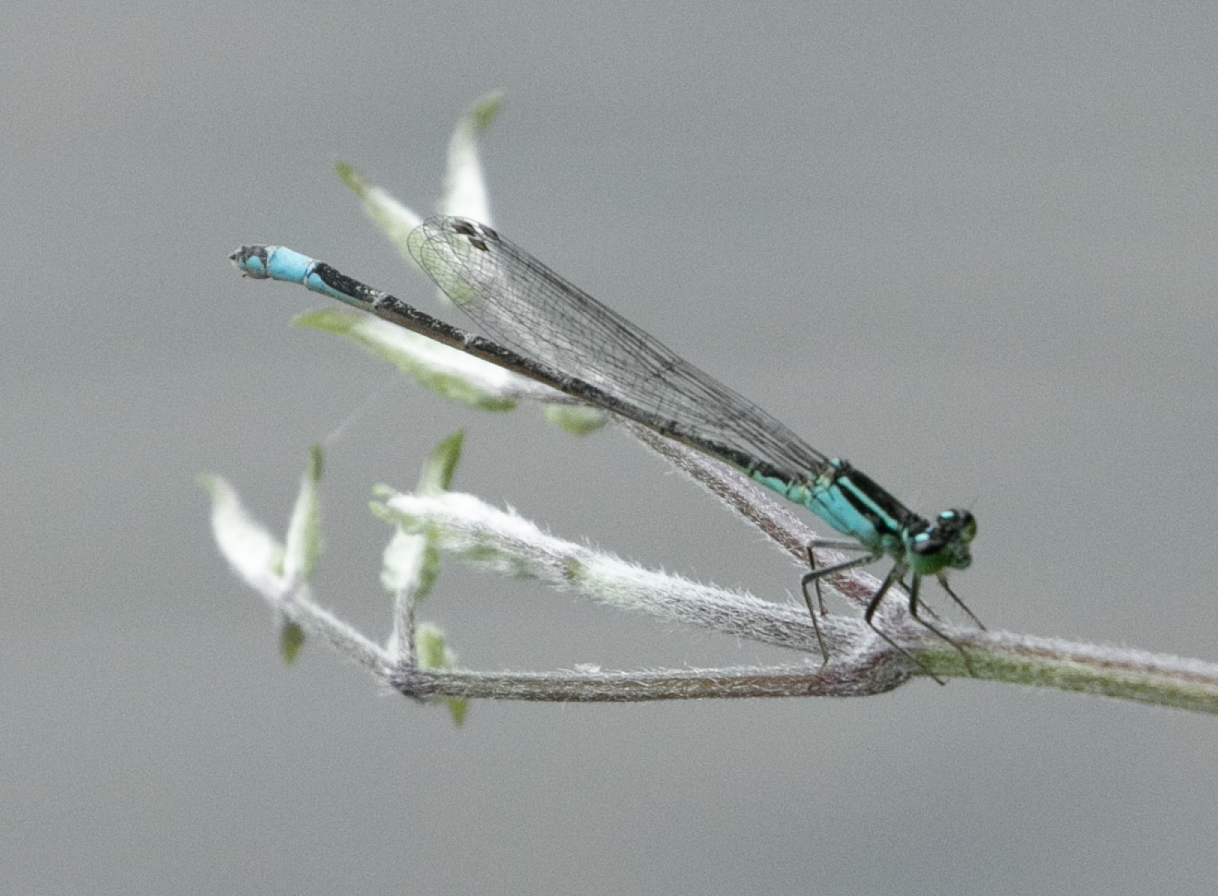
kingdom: Animalia
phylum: Arthropoda
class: Insecta
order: Odonata
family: Coenagrionidae
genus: Ischnura
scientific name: Ischnura elegans
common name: Blue-tailed damselfly
